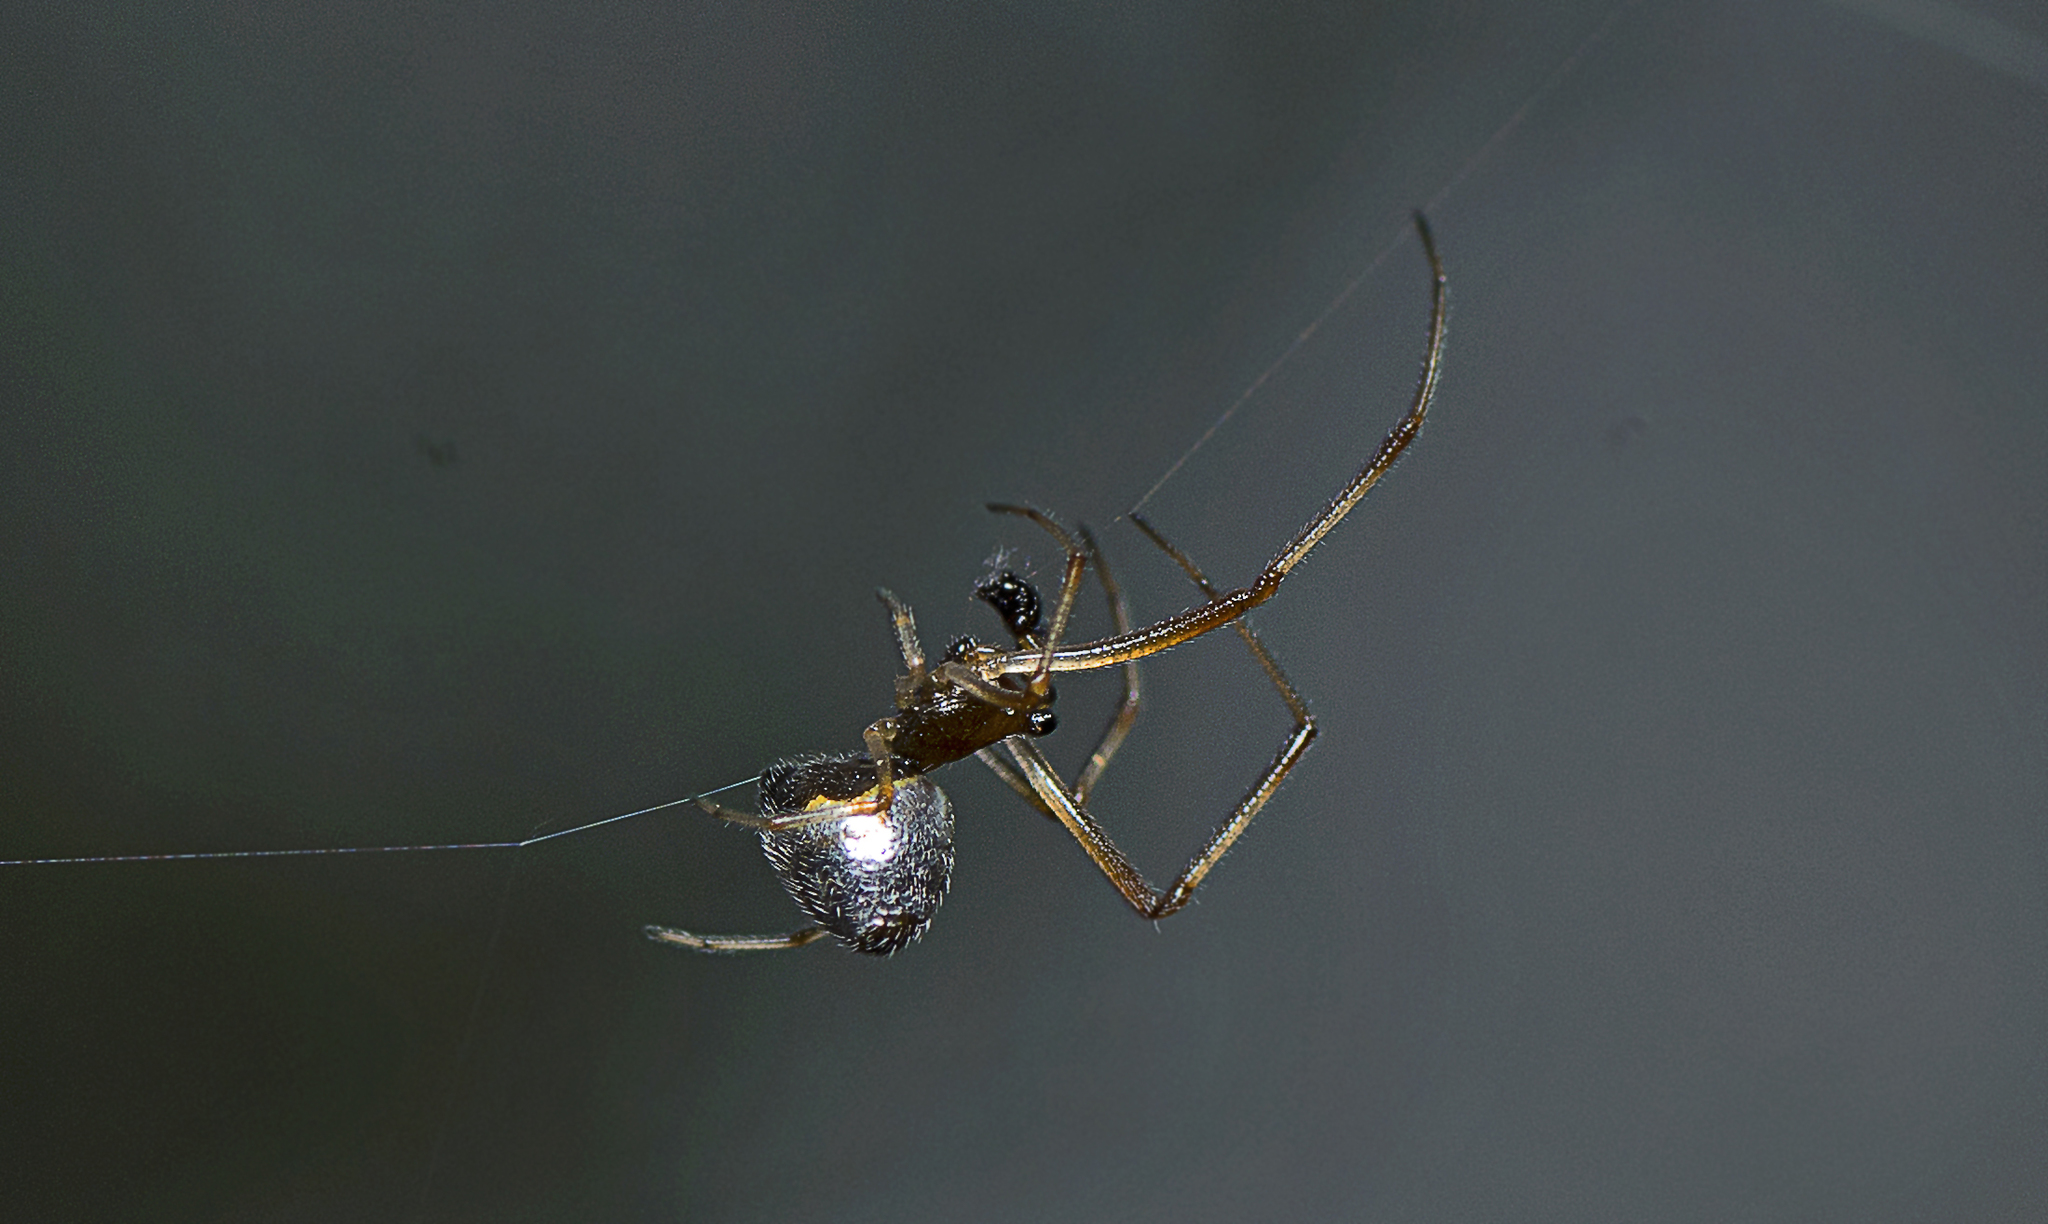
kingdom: Animalia
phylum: Arthropoda
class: Arachnida
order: Araneae
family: Theridiidae
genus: Argyrodes
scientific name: Argyrodes antipodianus
